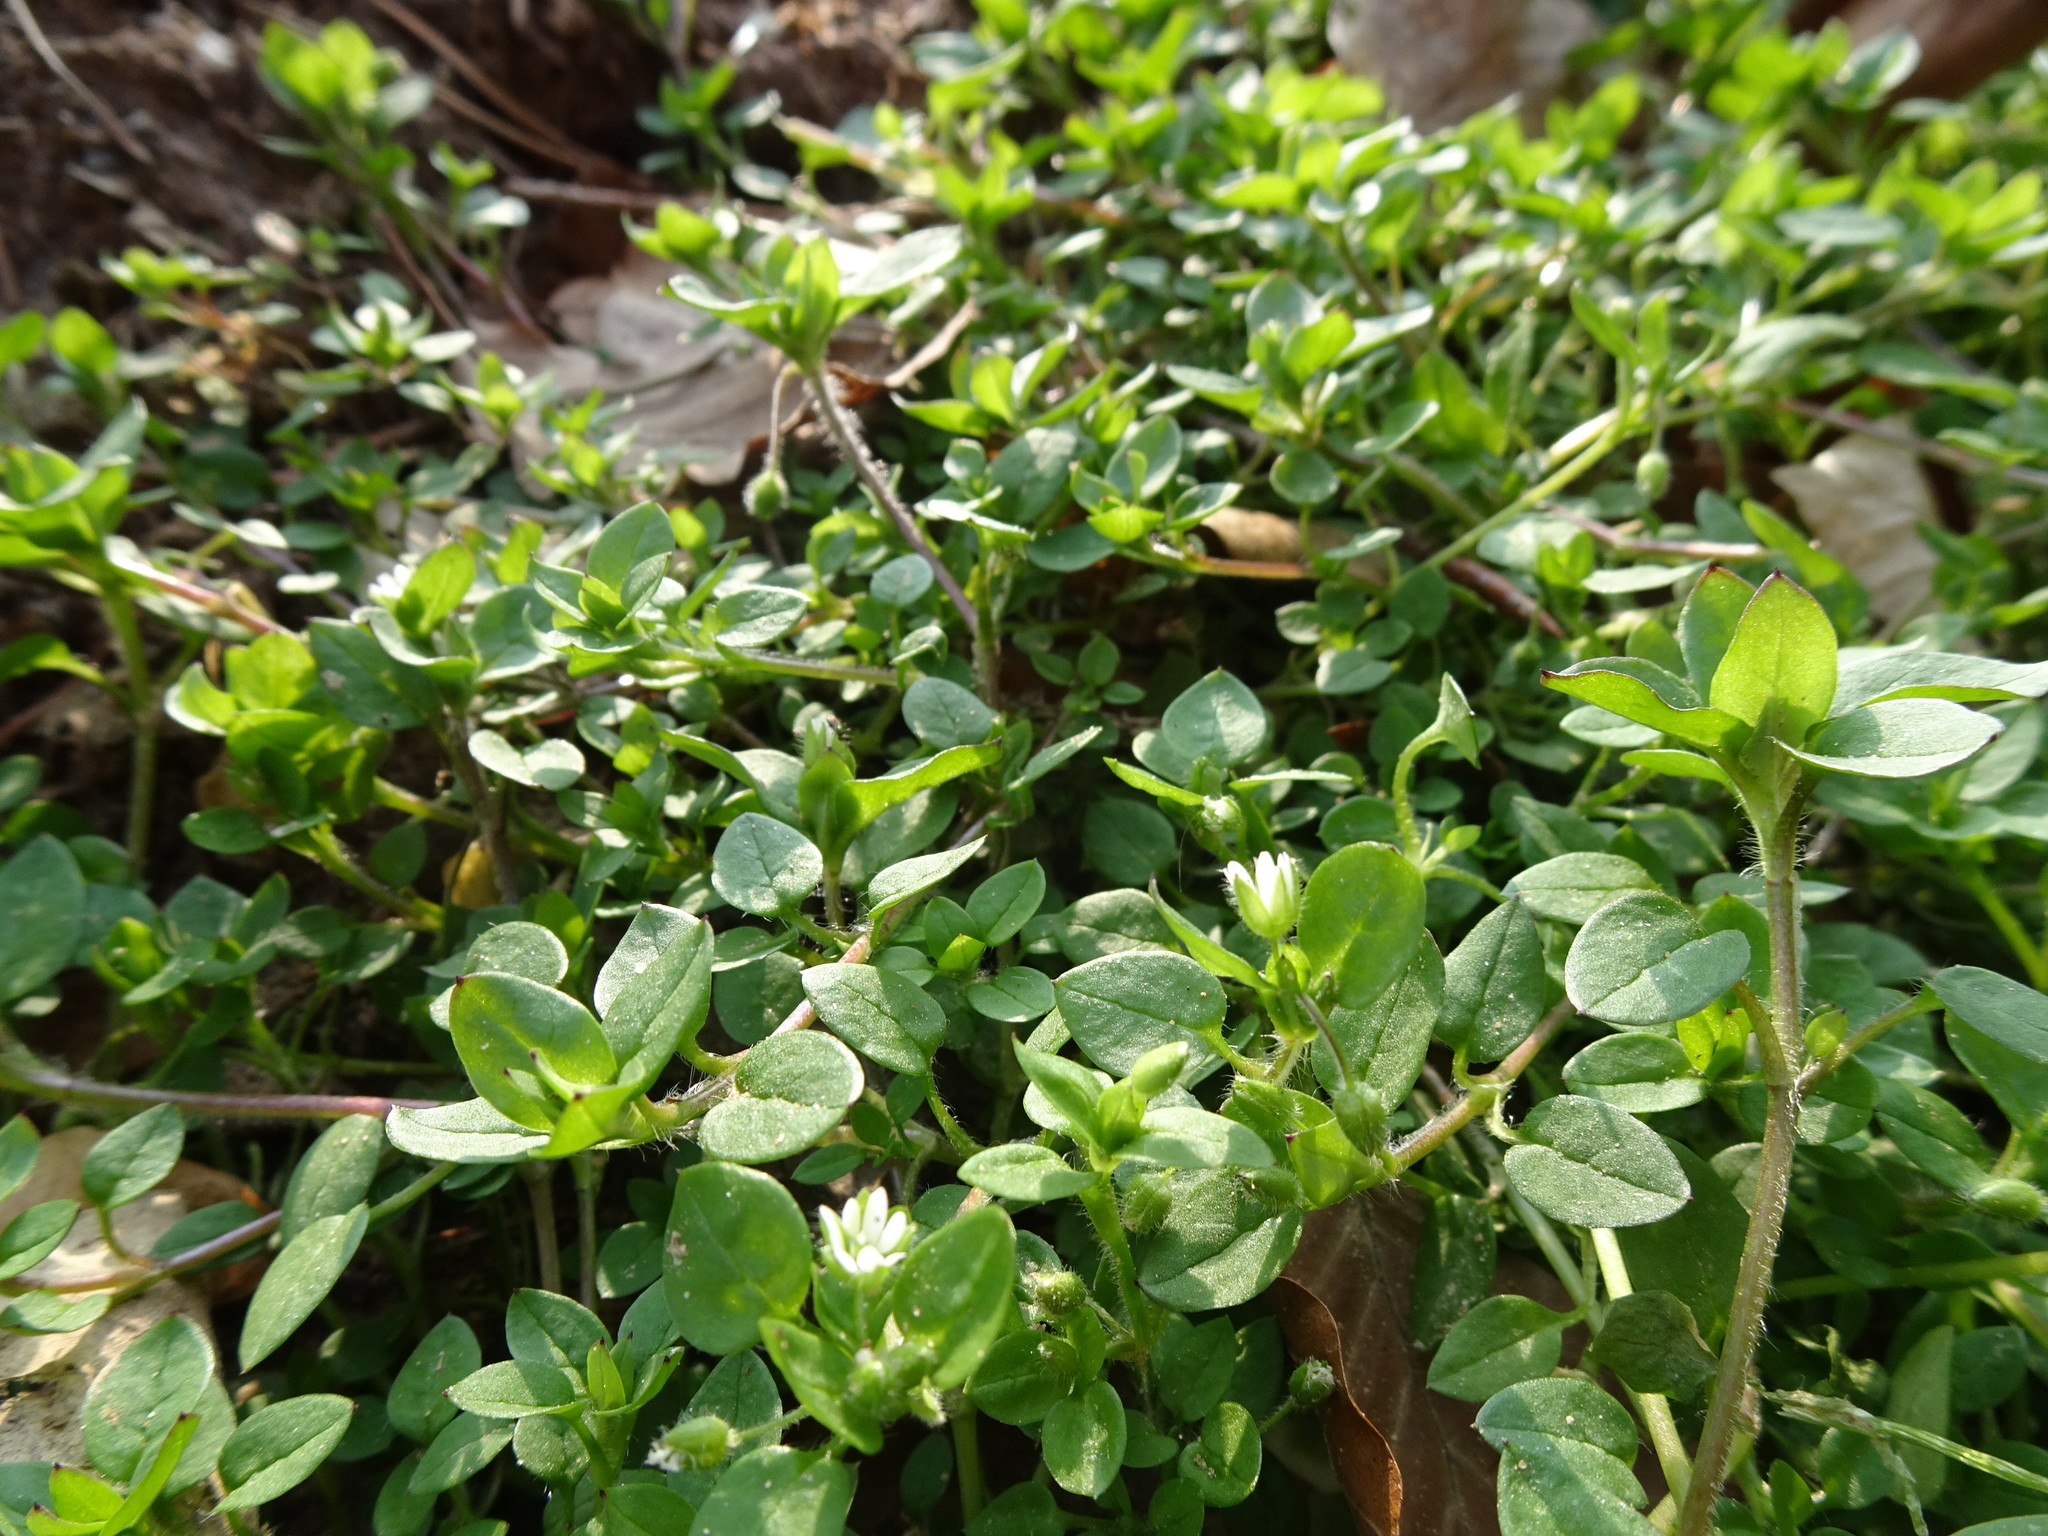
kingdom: Plantae
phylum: Tracheophyta
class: Magnoliopsida
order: Caryophyllales
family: Caryophyllaceae
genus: Stellaria
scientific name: Stellaria media
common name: Common chickweed
